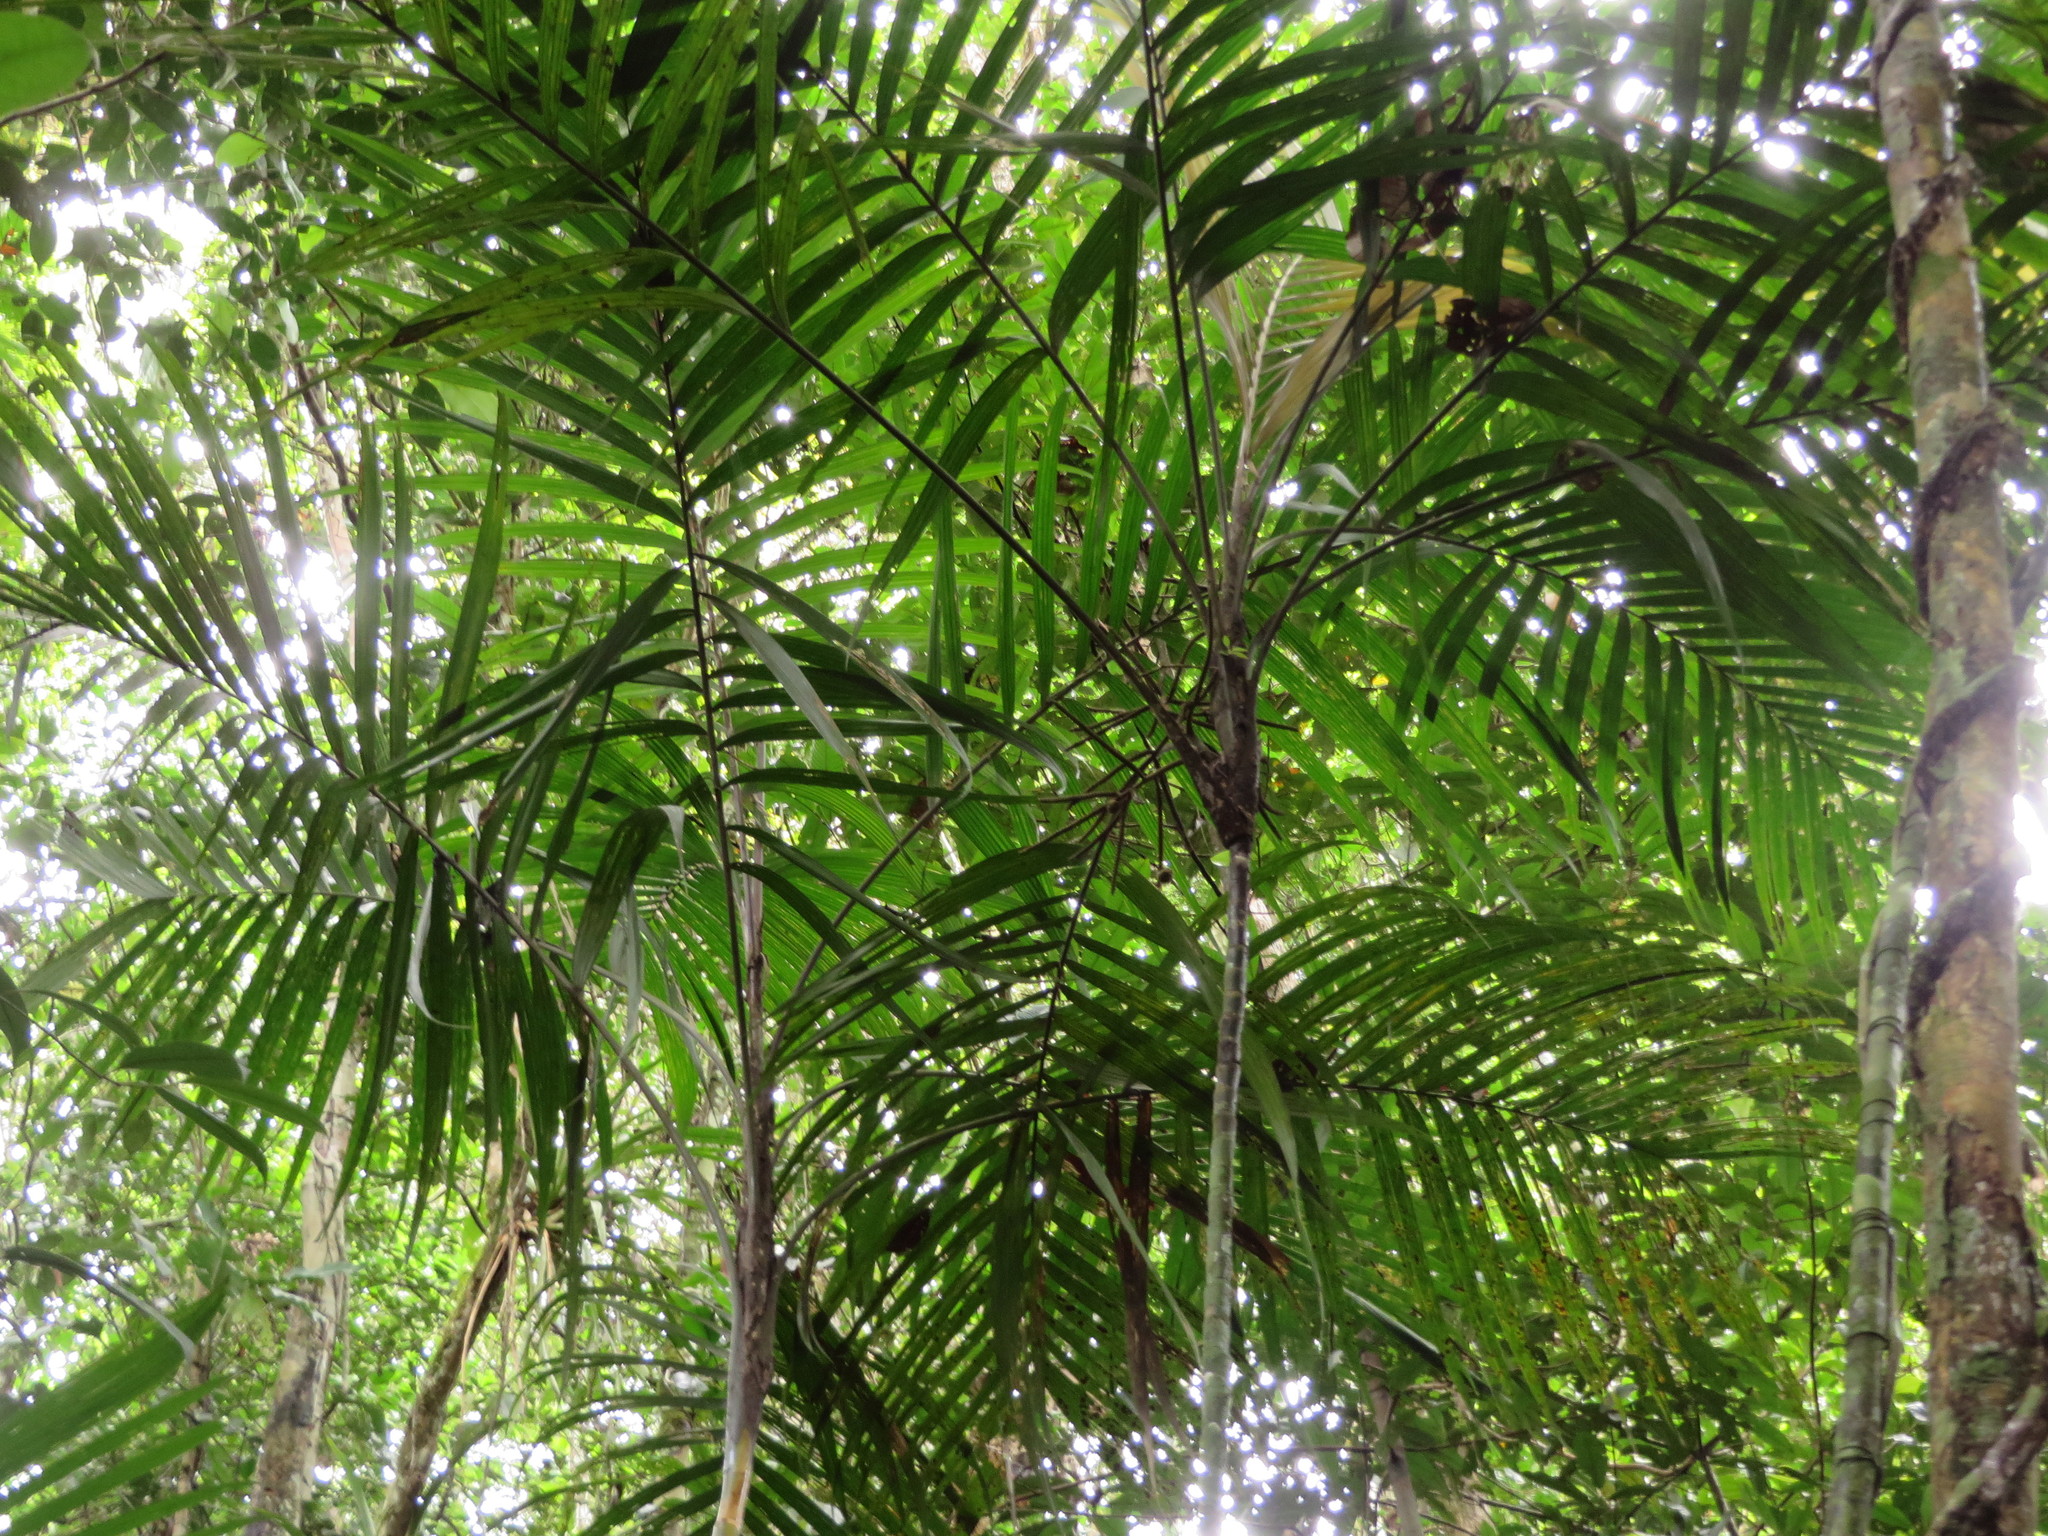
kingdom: Plantae
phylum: Tracheophyta
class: Liliopsida
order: Arecales
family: Arecaceae
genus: Geonoma
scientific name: Geonoma maxima
